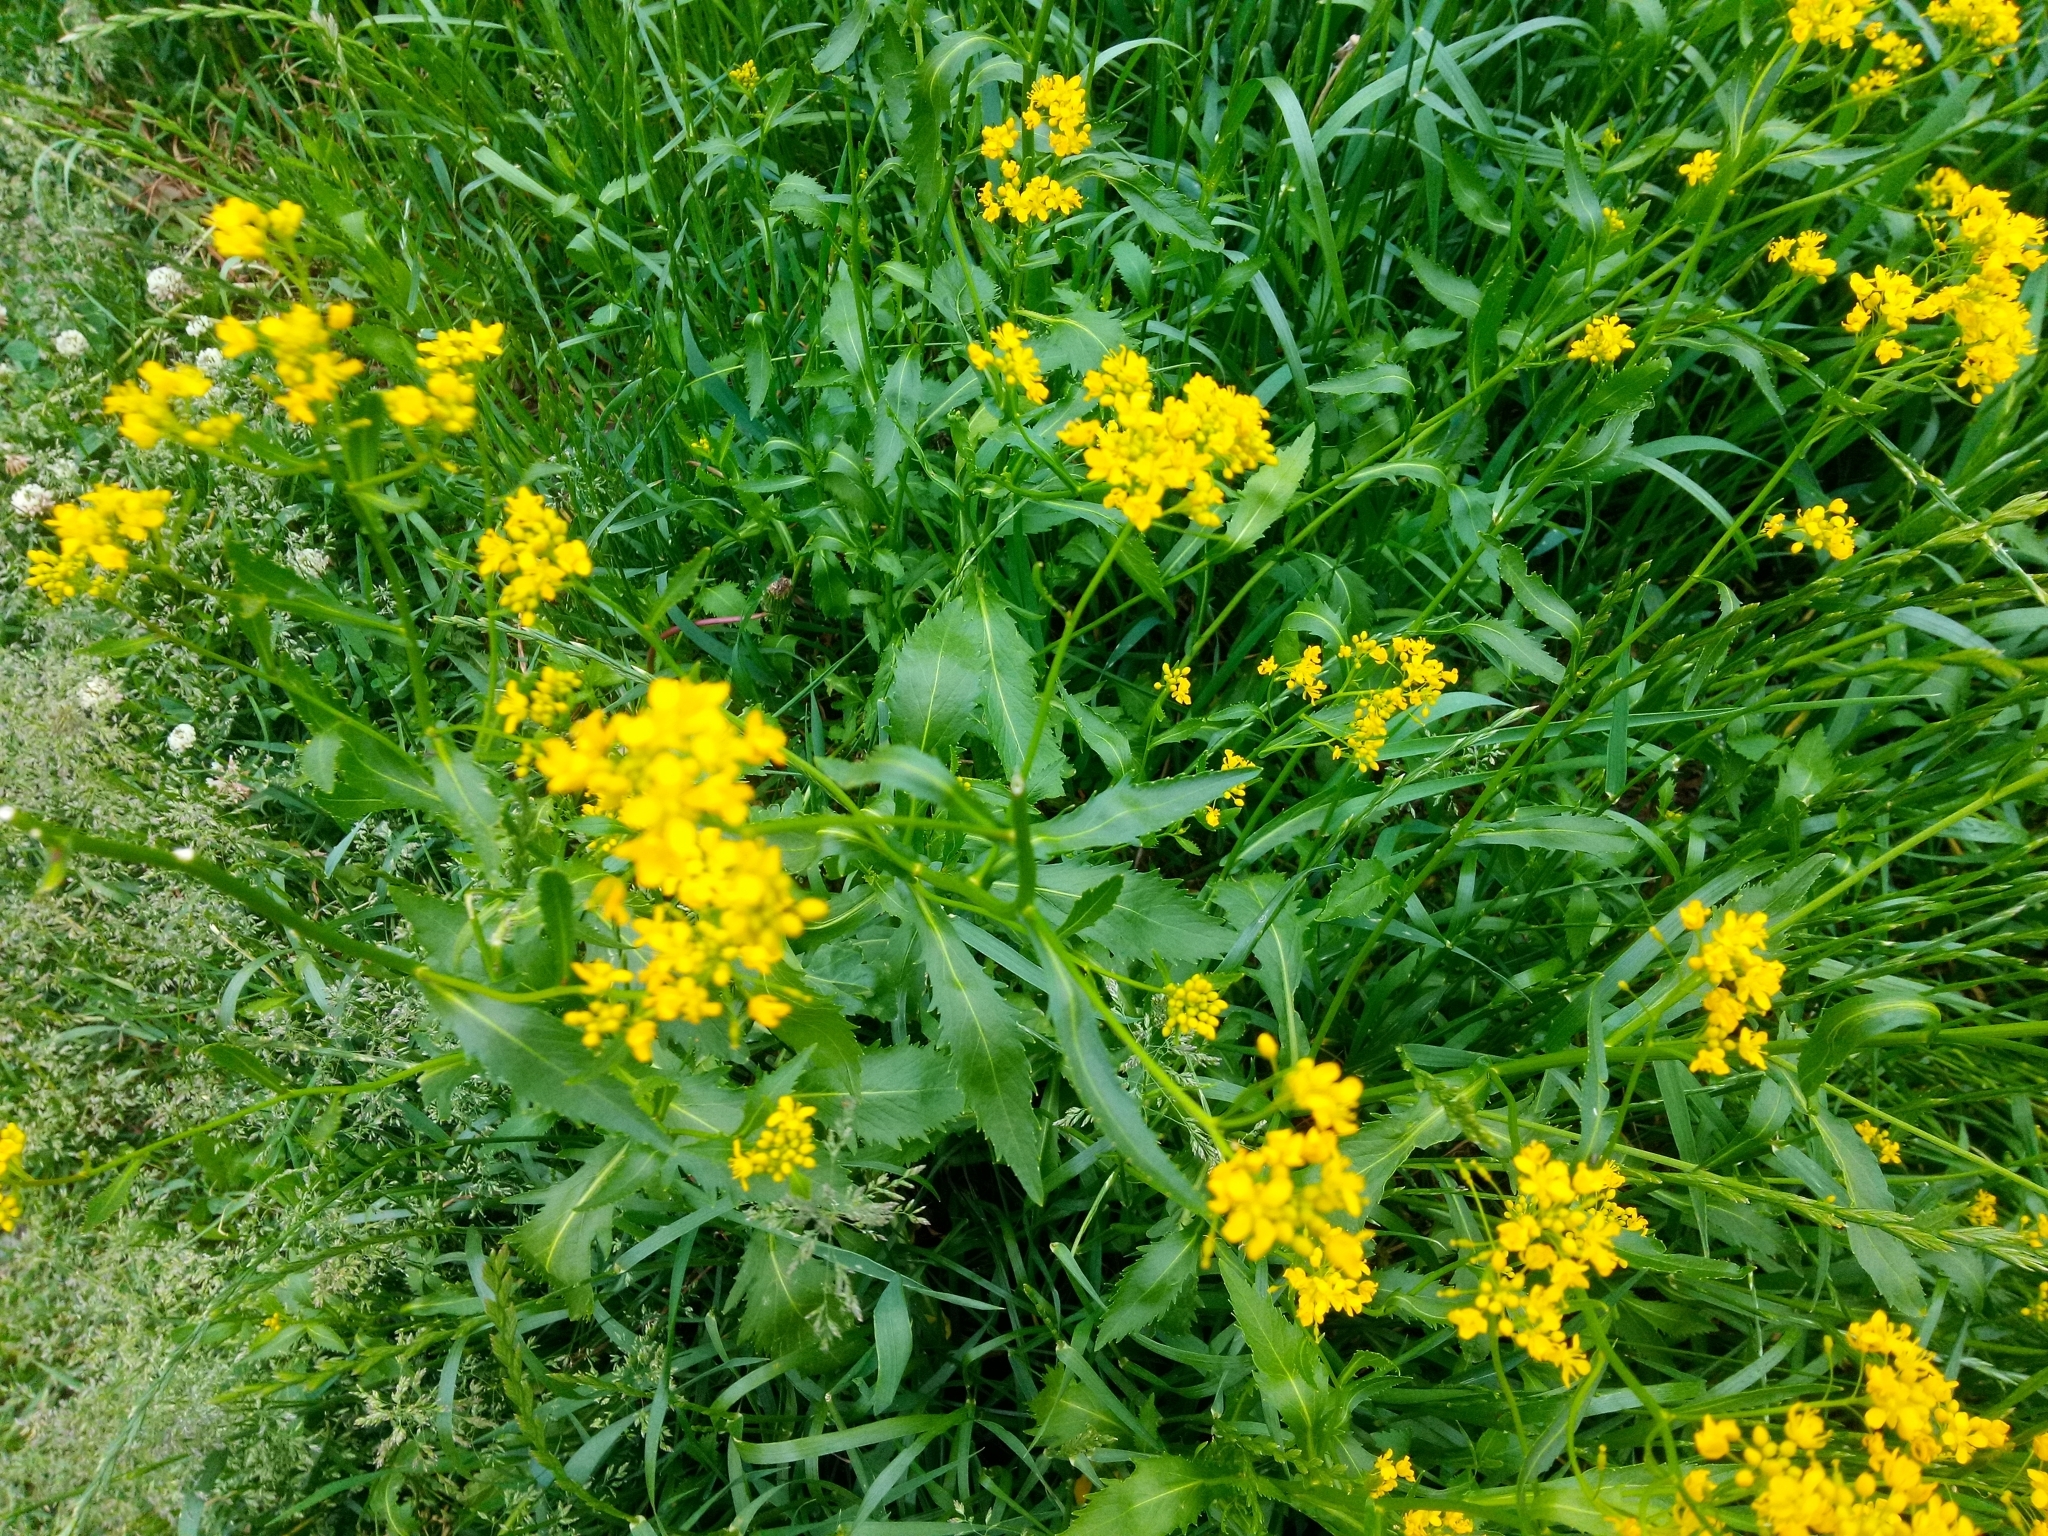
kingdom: Plantae
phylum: Tracheophyta
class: Magnoliopsida
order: Brassicales
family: Brassicaceae
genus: Rorippa
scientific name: Rorippa austriaca
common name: Austrian yellow-cress
